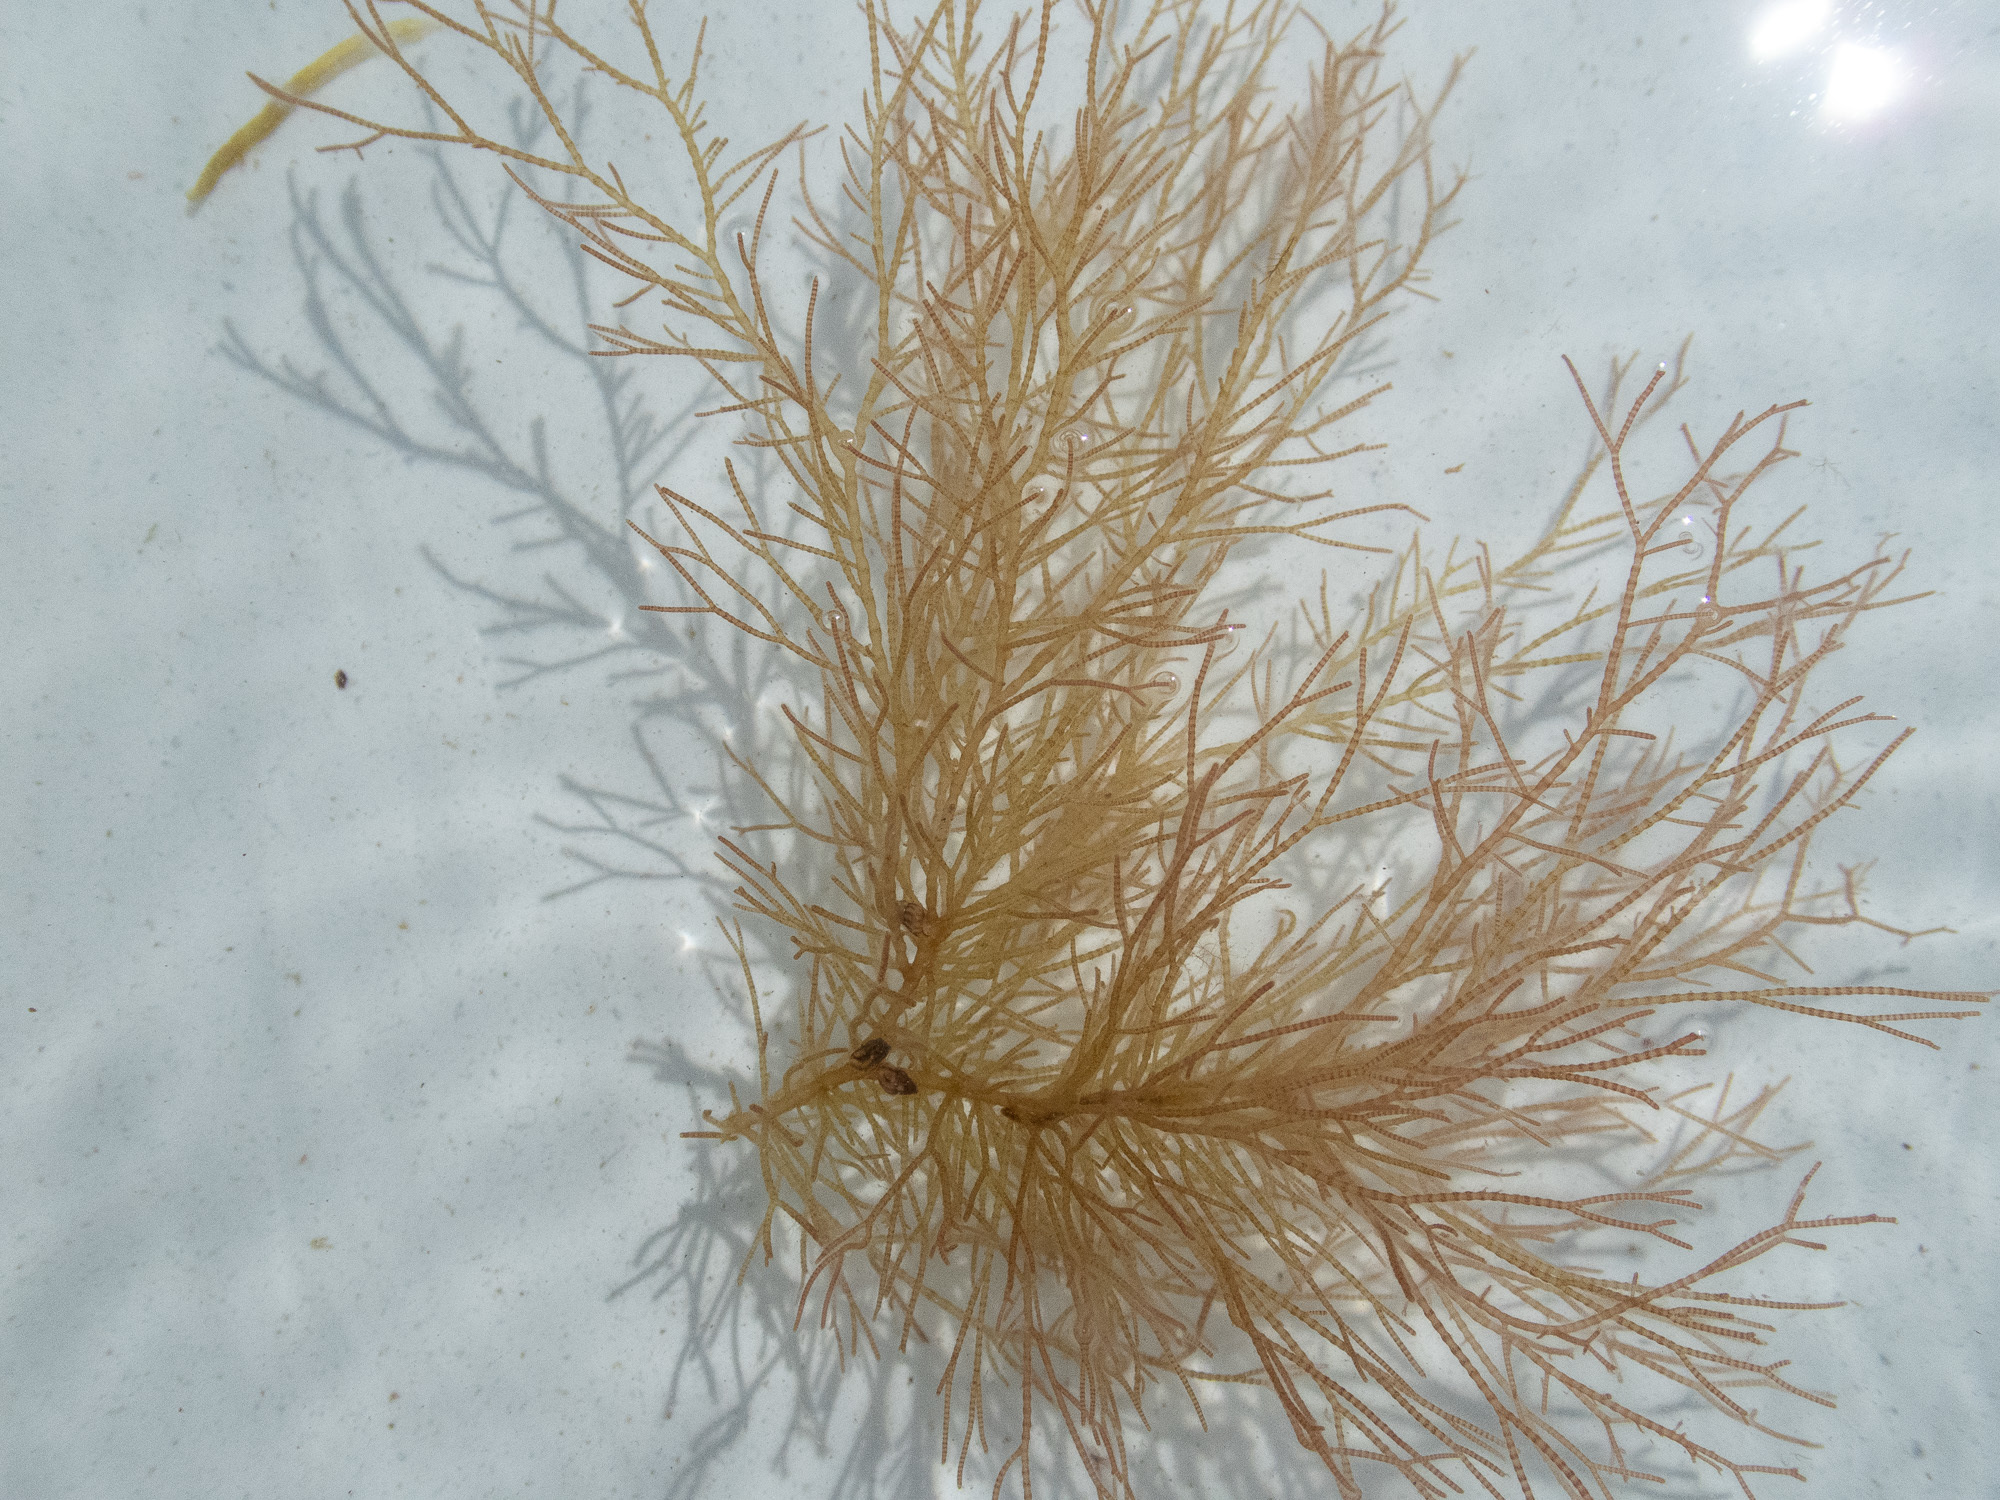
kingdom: Plantae
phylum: Rhodophyta
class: Florideophyceae
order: Ceramiales
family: Ceramiaceae
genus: Ceramium
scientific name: Ceramium virgatum
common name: Red hornweed
